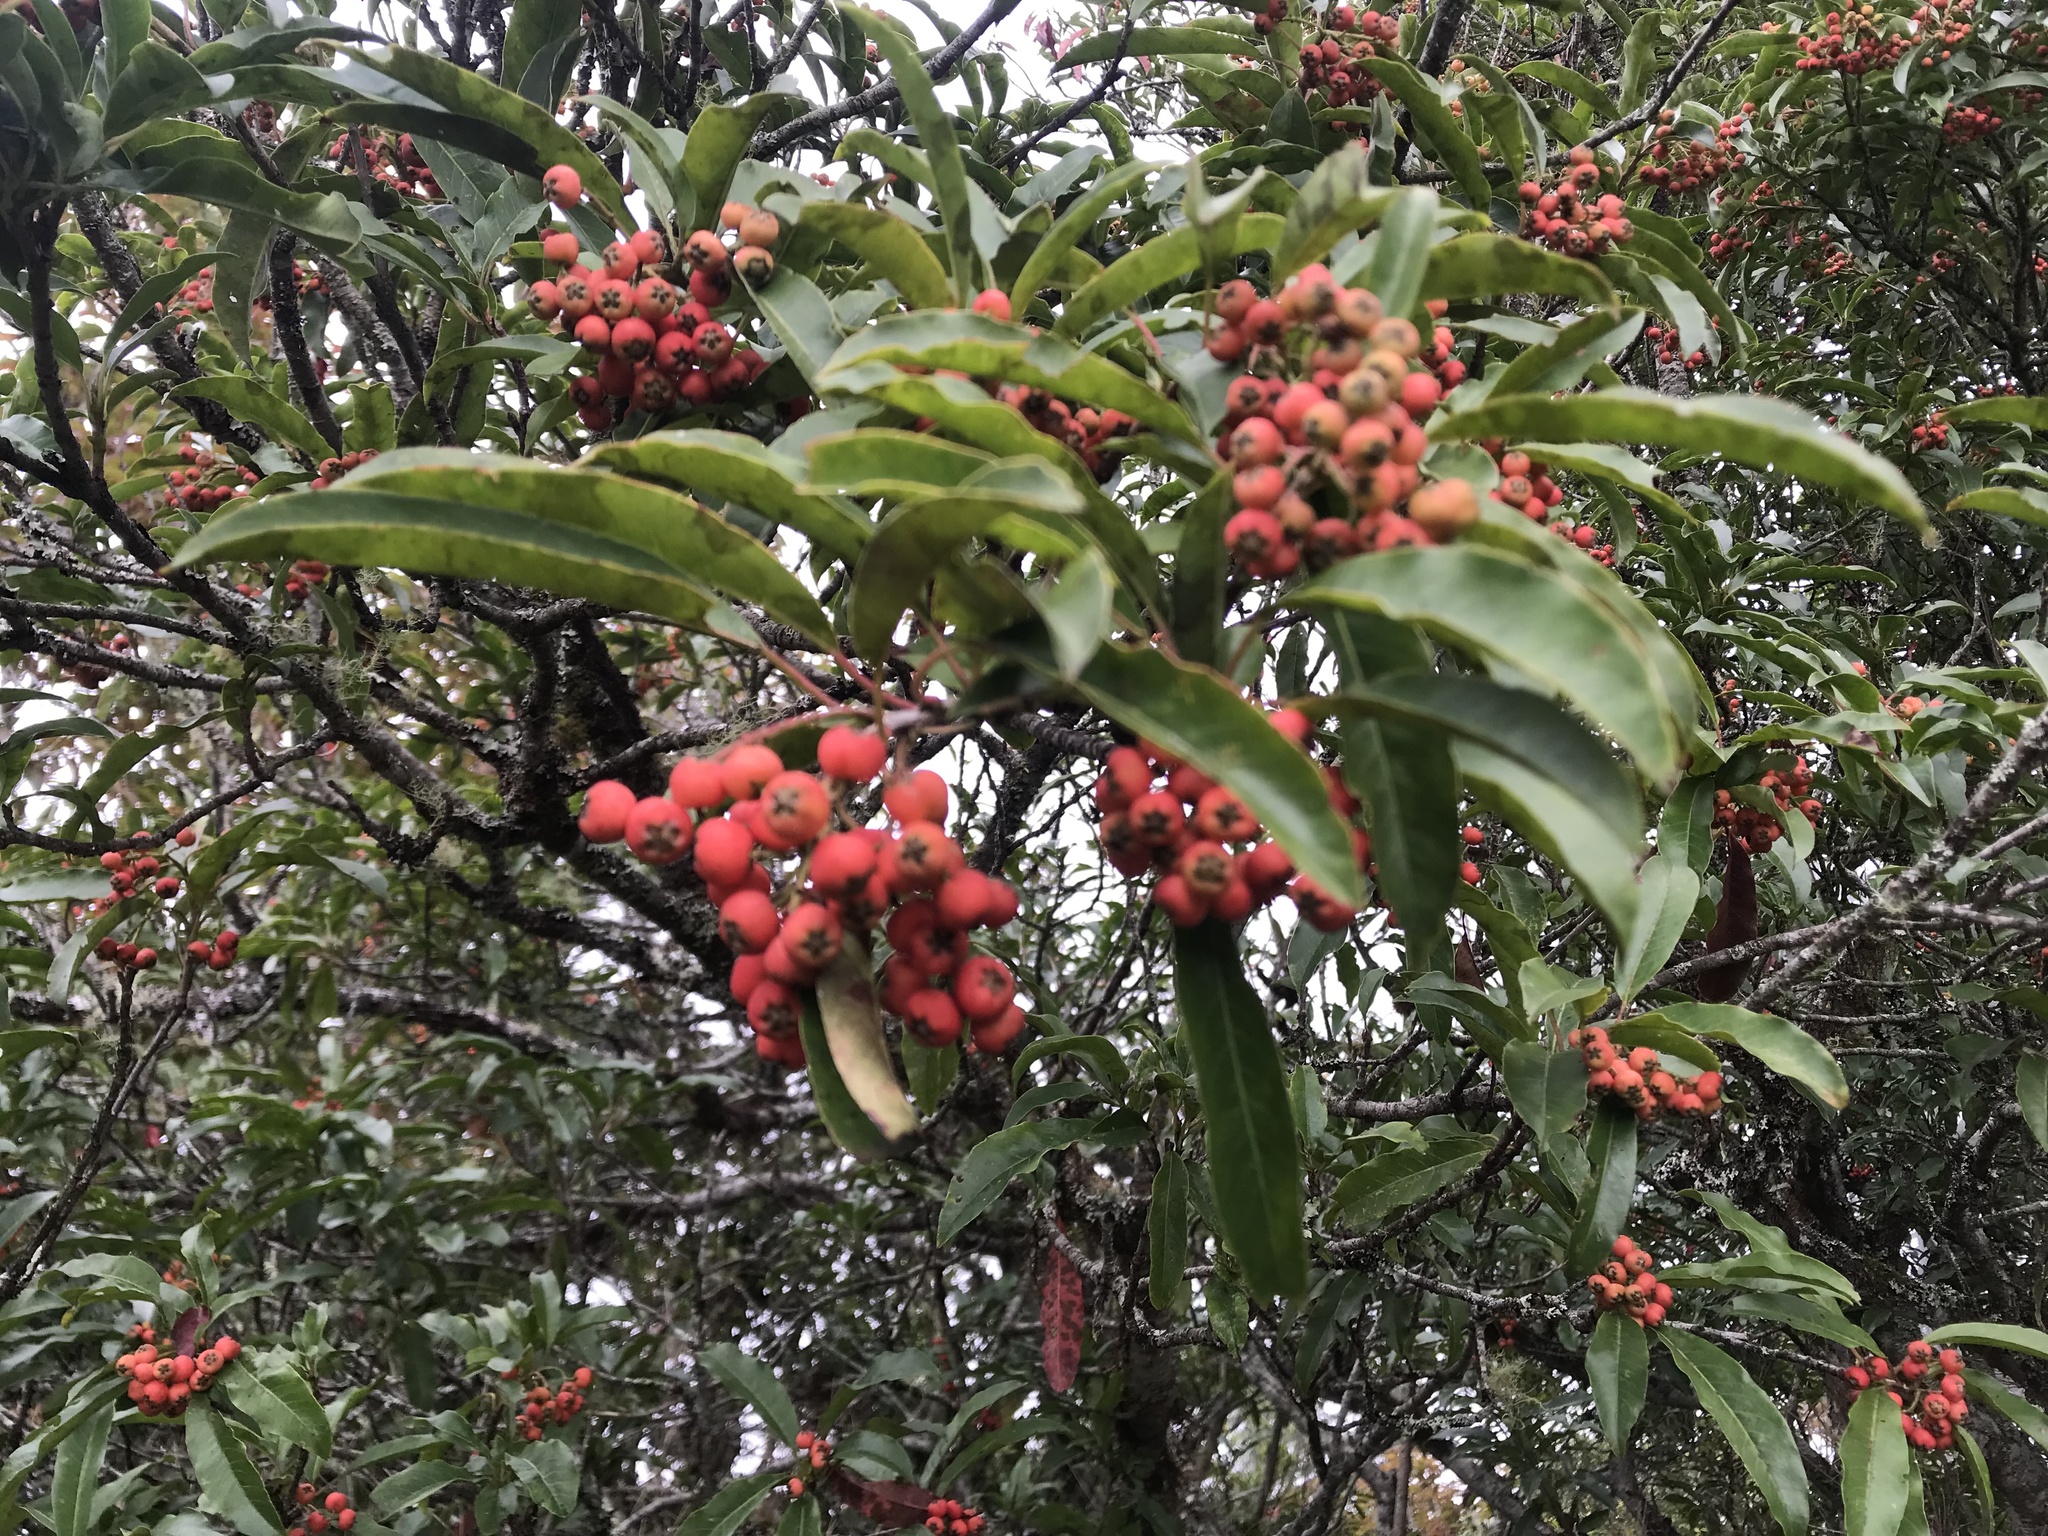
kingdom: Plantae
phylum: Tracheophyta
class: Magnoliopsida
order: Rosales
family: Rosaceae
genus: Stranvaesia
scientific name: Stranvaesia davidiana
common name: Chinese photinia
